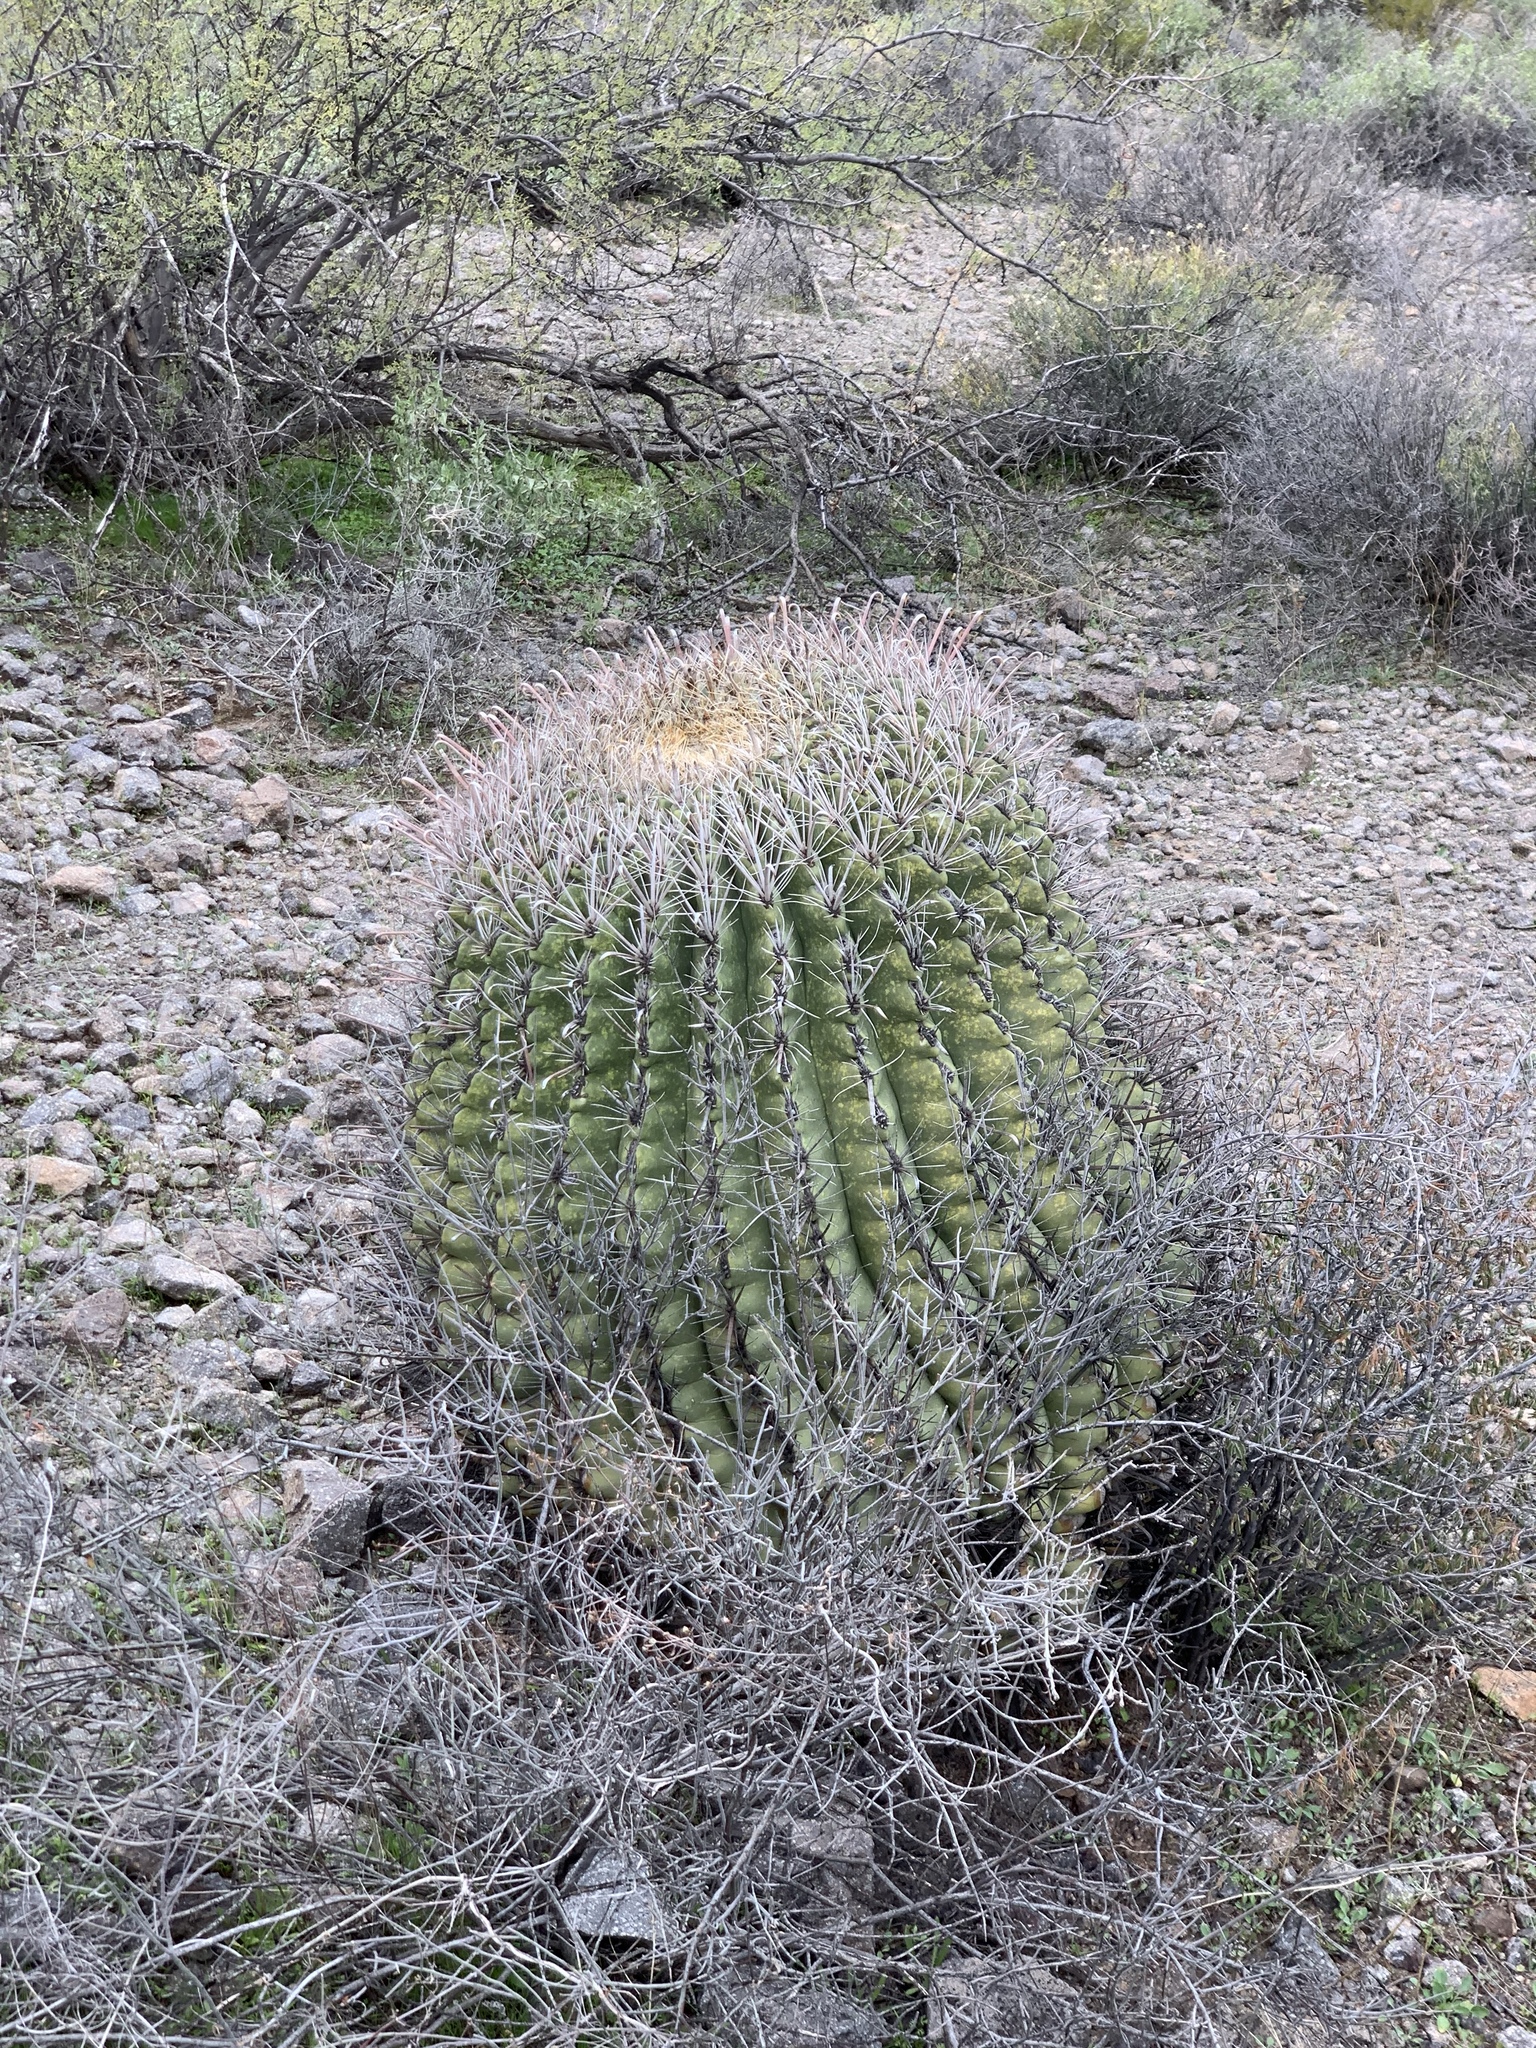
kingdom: Plantae
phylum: Tracheophyta
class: Magnoliopsida
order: Caryophyllales
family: Cactaceae
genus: Ferocactus
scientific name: Ferocactus wislizeni
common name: Candy barrel cactus
